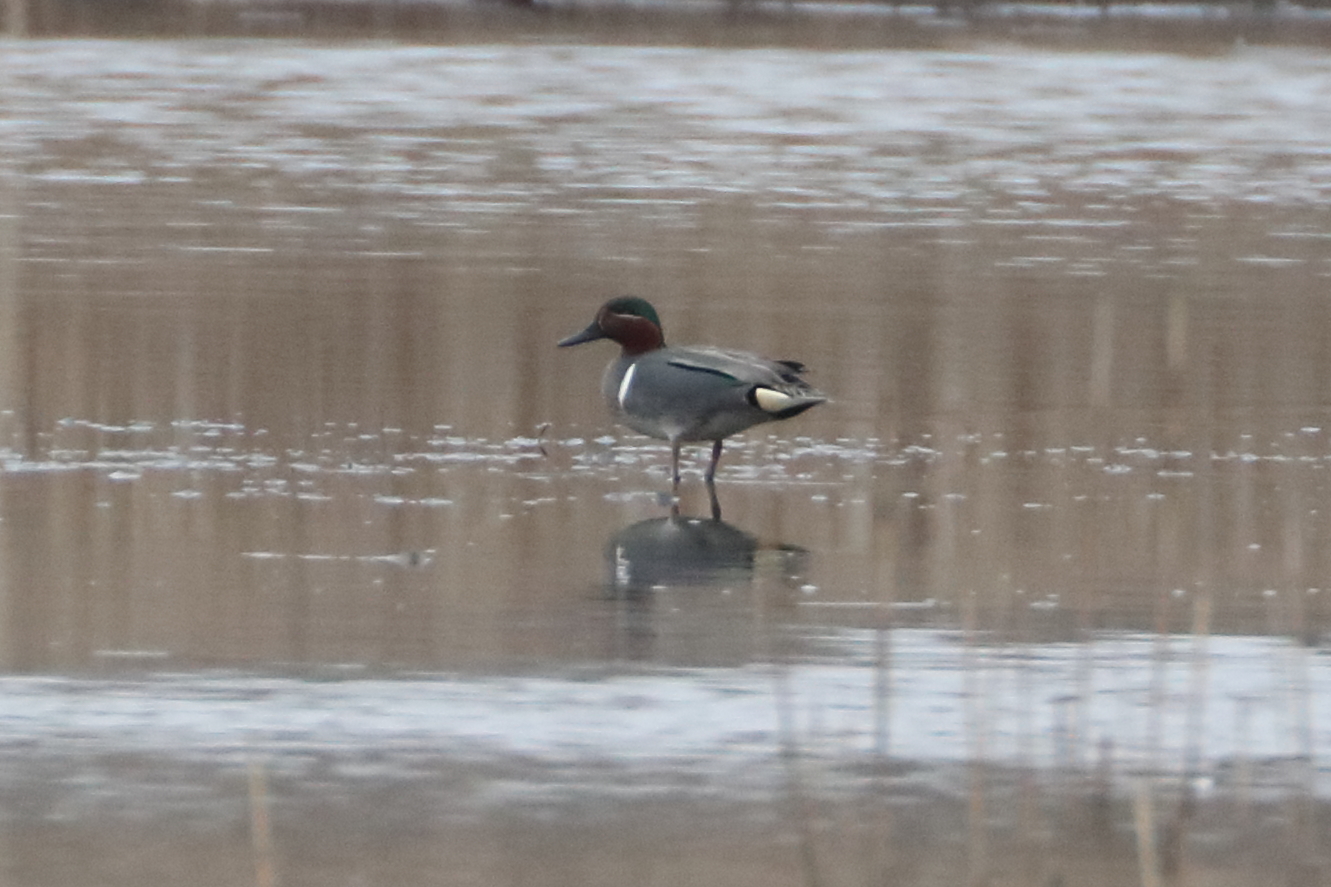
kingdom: Animalia
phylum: Chordata
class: Aves
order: Anseriformes
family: Anatidae
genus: Anas
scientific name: Anas crecca
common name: Eurasian teal
